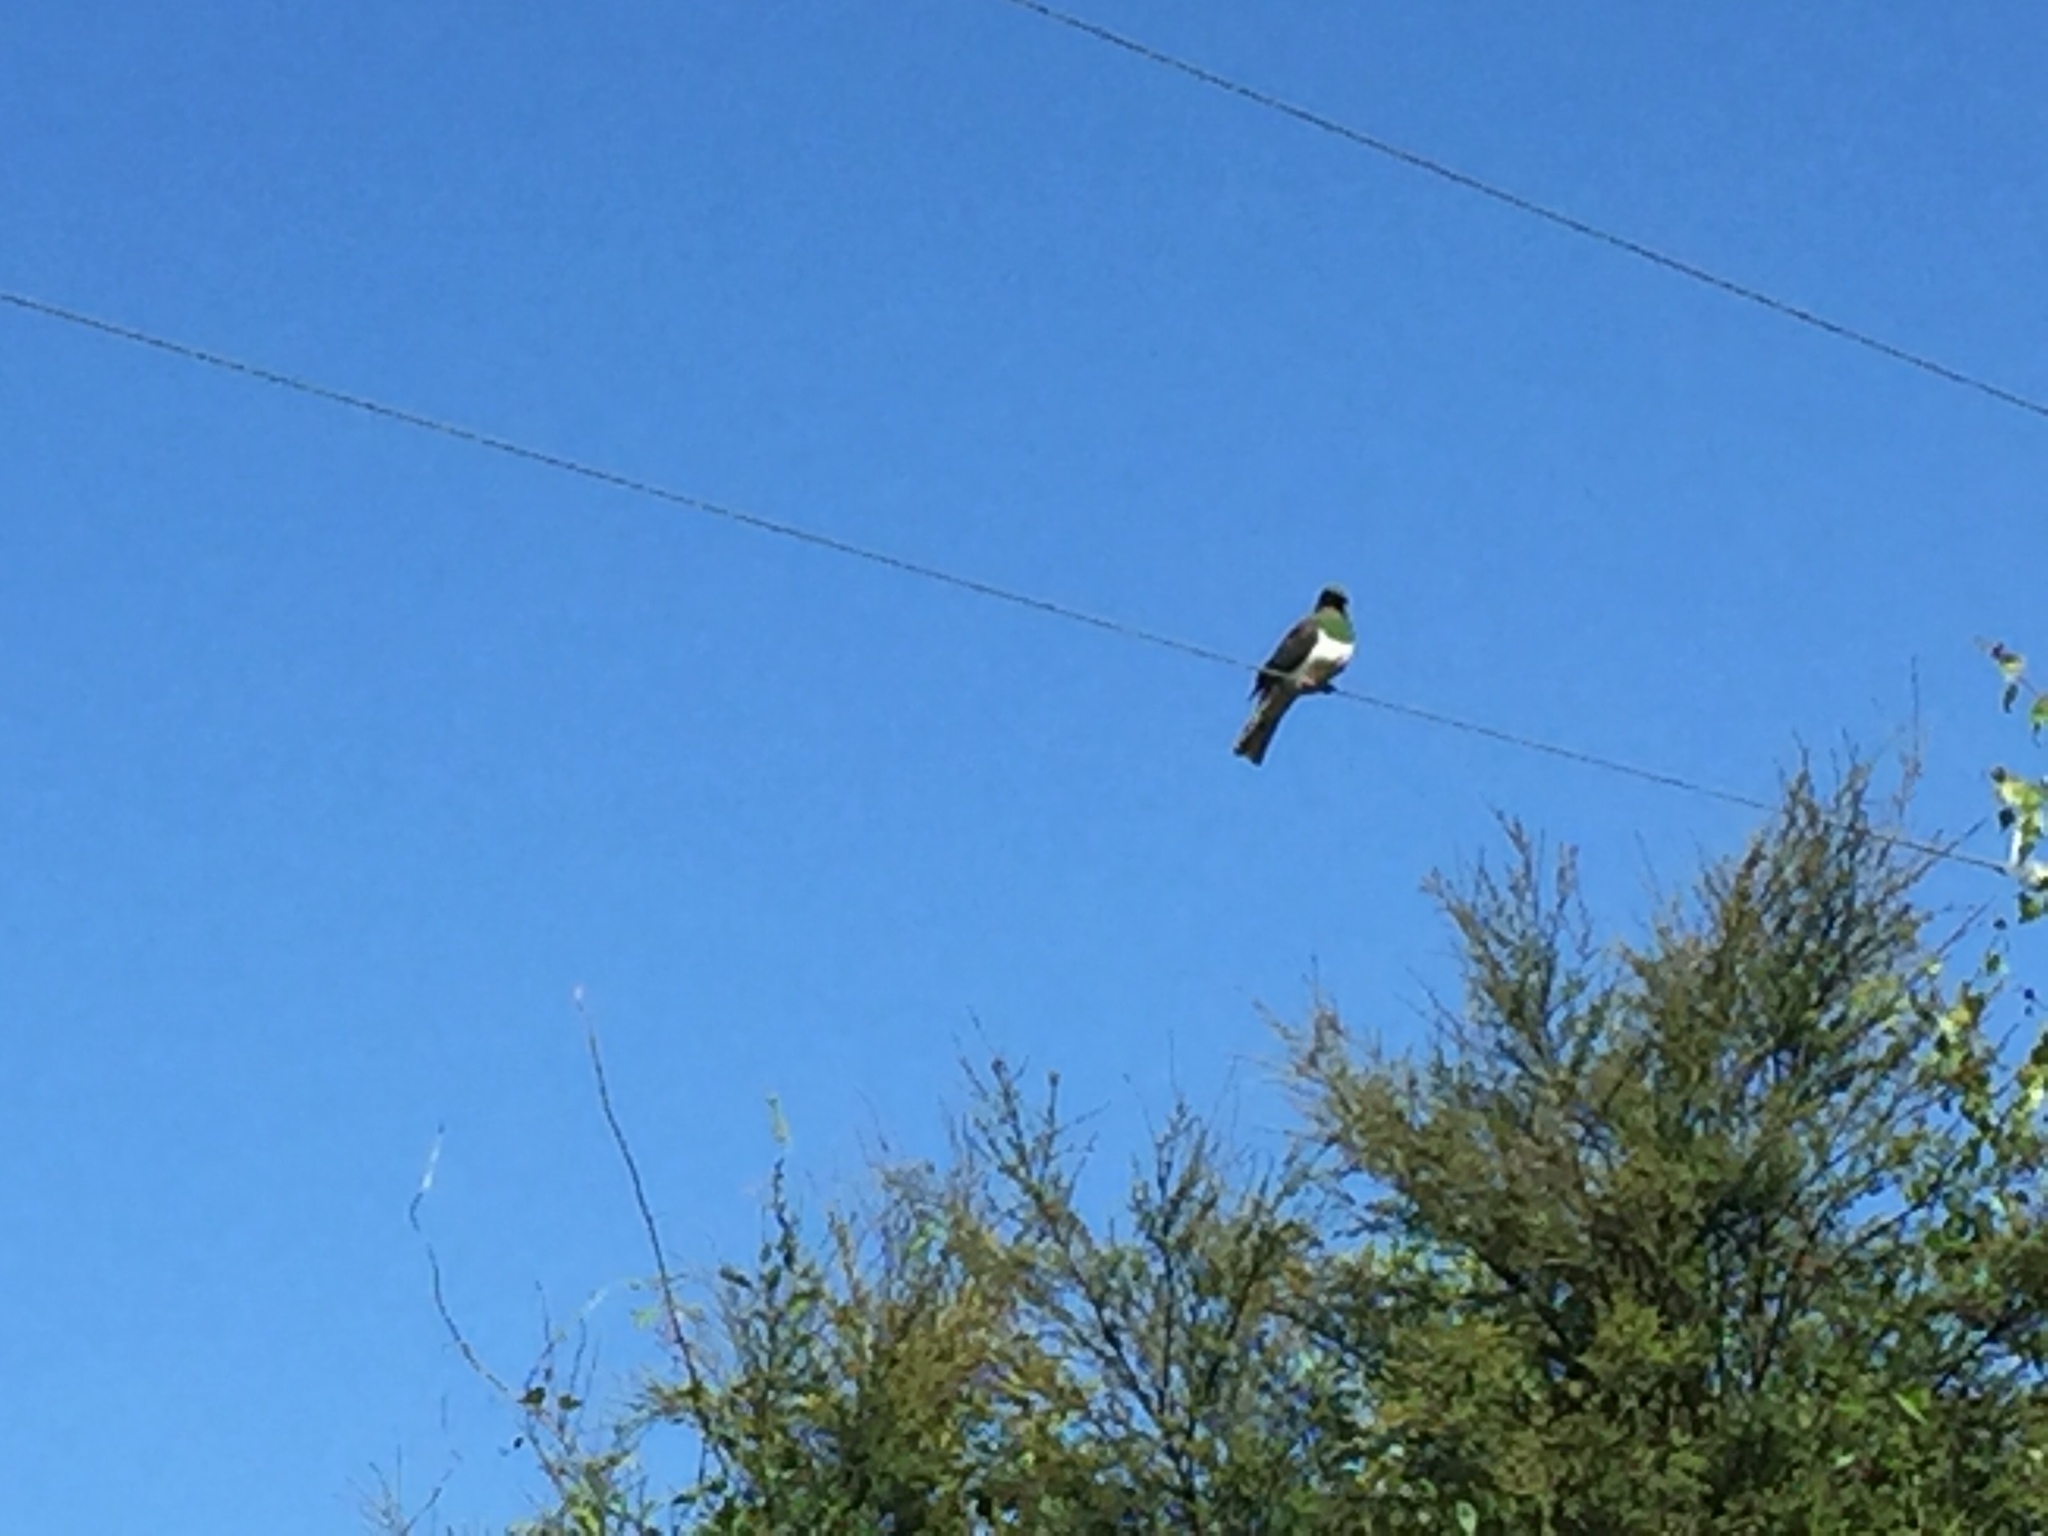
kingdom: Animalia
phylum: Chordata
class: Aves
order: Columbiformes
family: Columbidae
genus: Hemiphaga
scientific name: Hemiphaga novaeseelandiae
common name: New zealand pigeon
